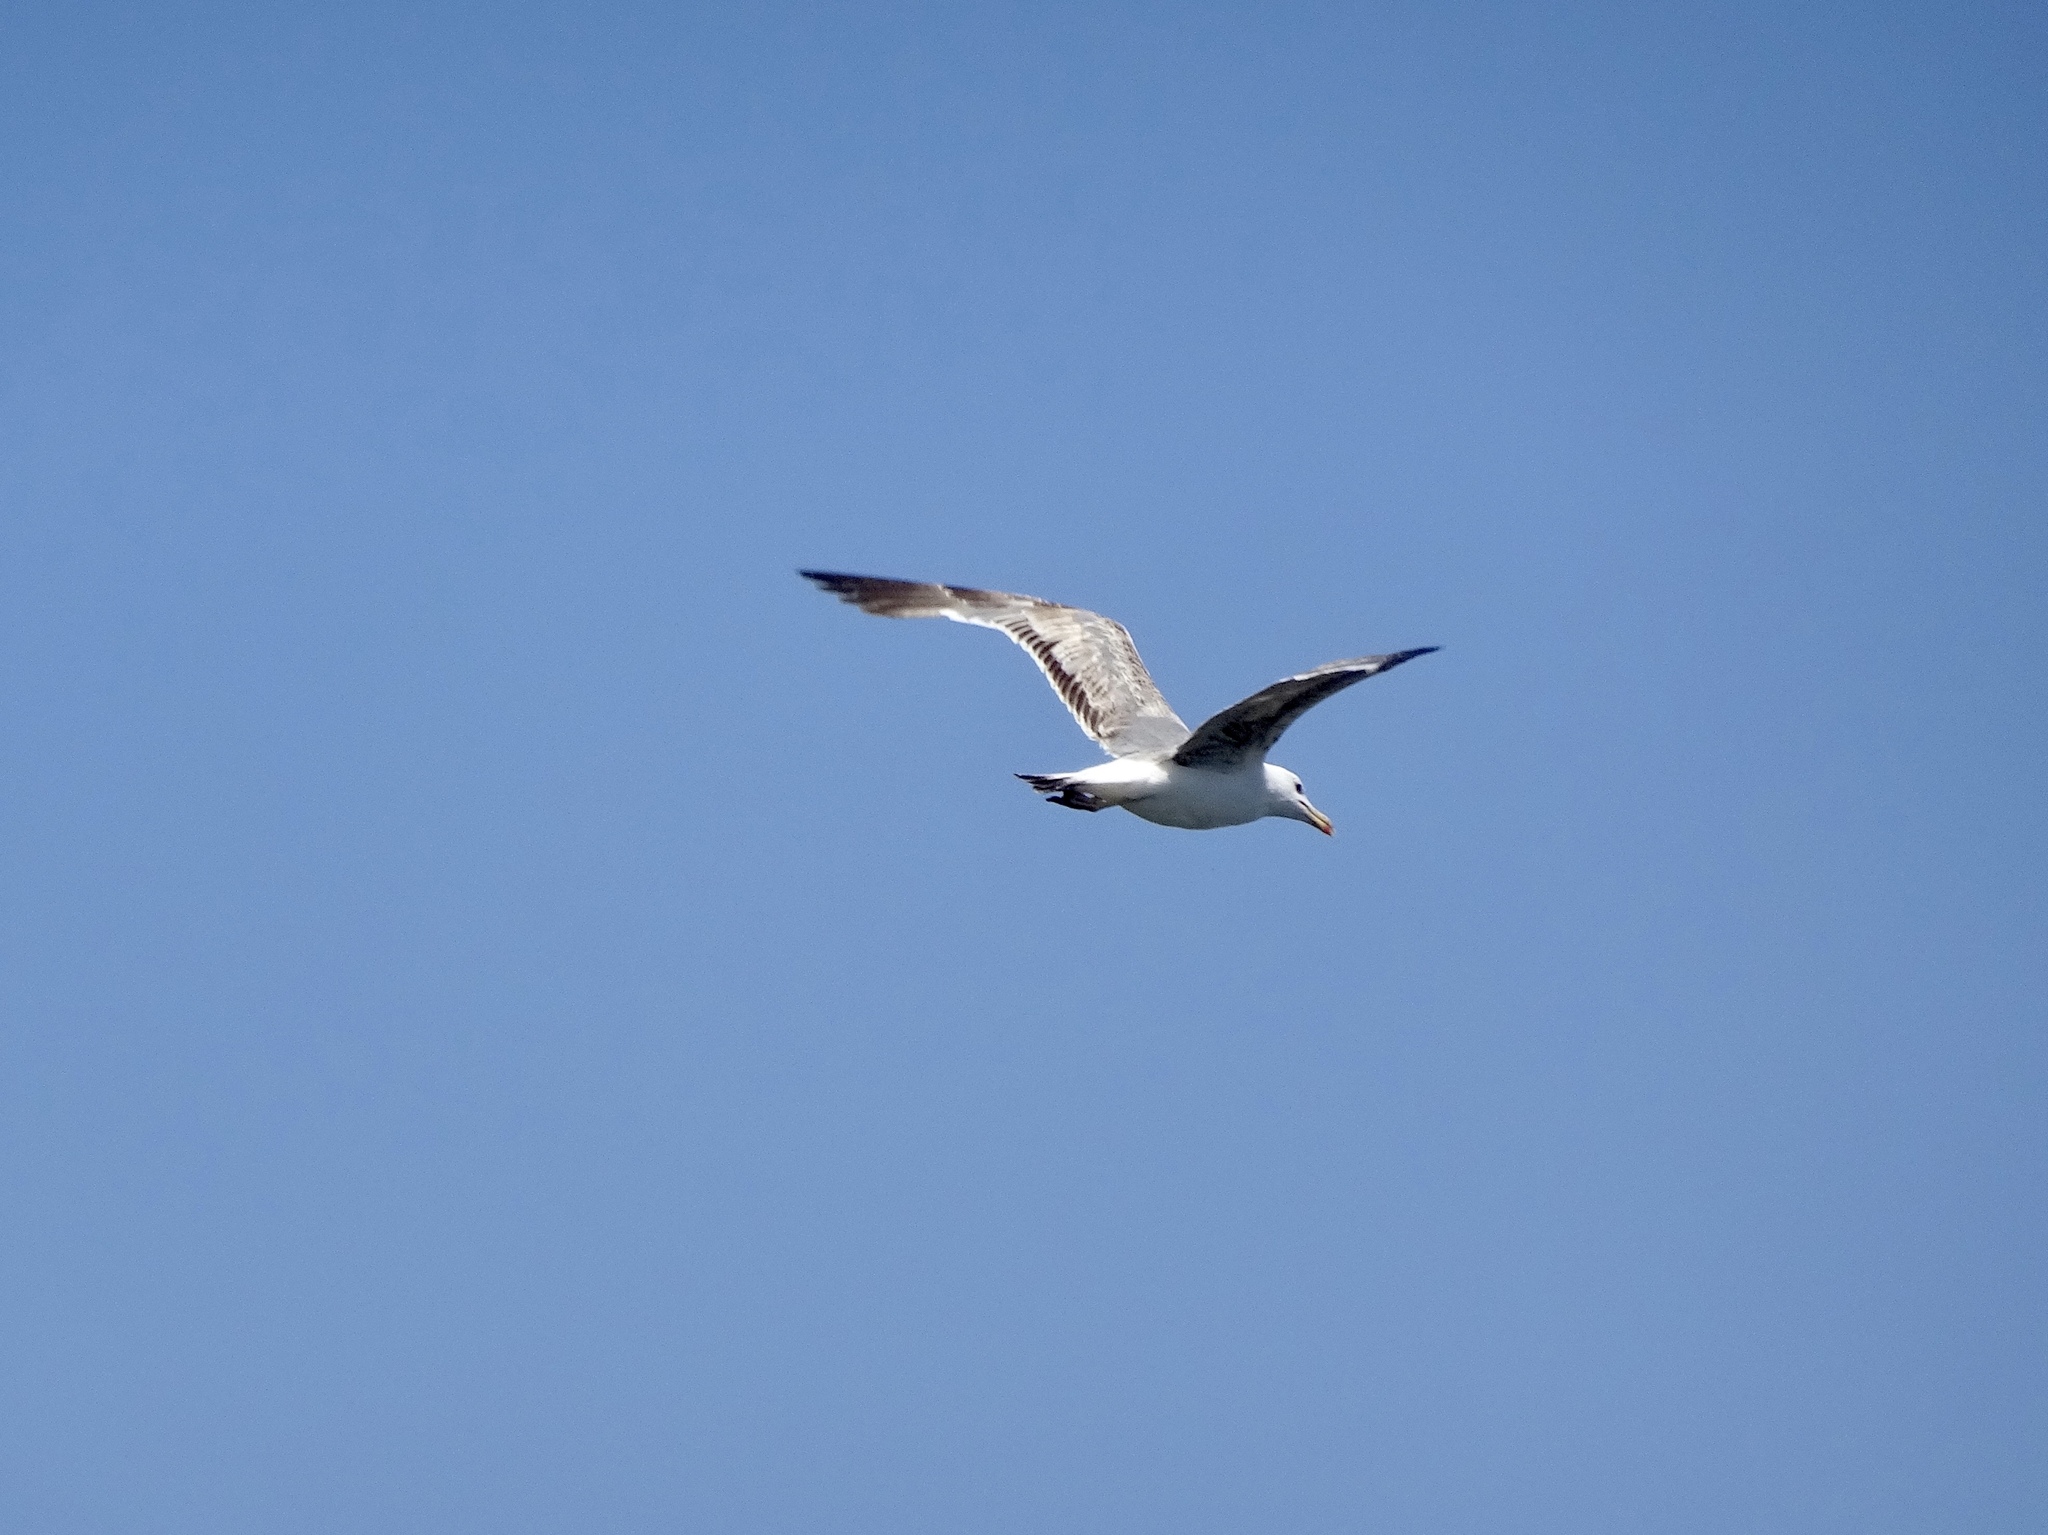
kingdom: Animalia
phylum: Chordata
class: Aves
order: Charadriiformes
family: Laridae
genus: Larus
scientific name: Larus michahellis
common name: Yellow-legged gull
